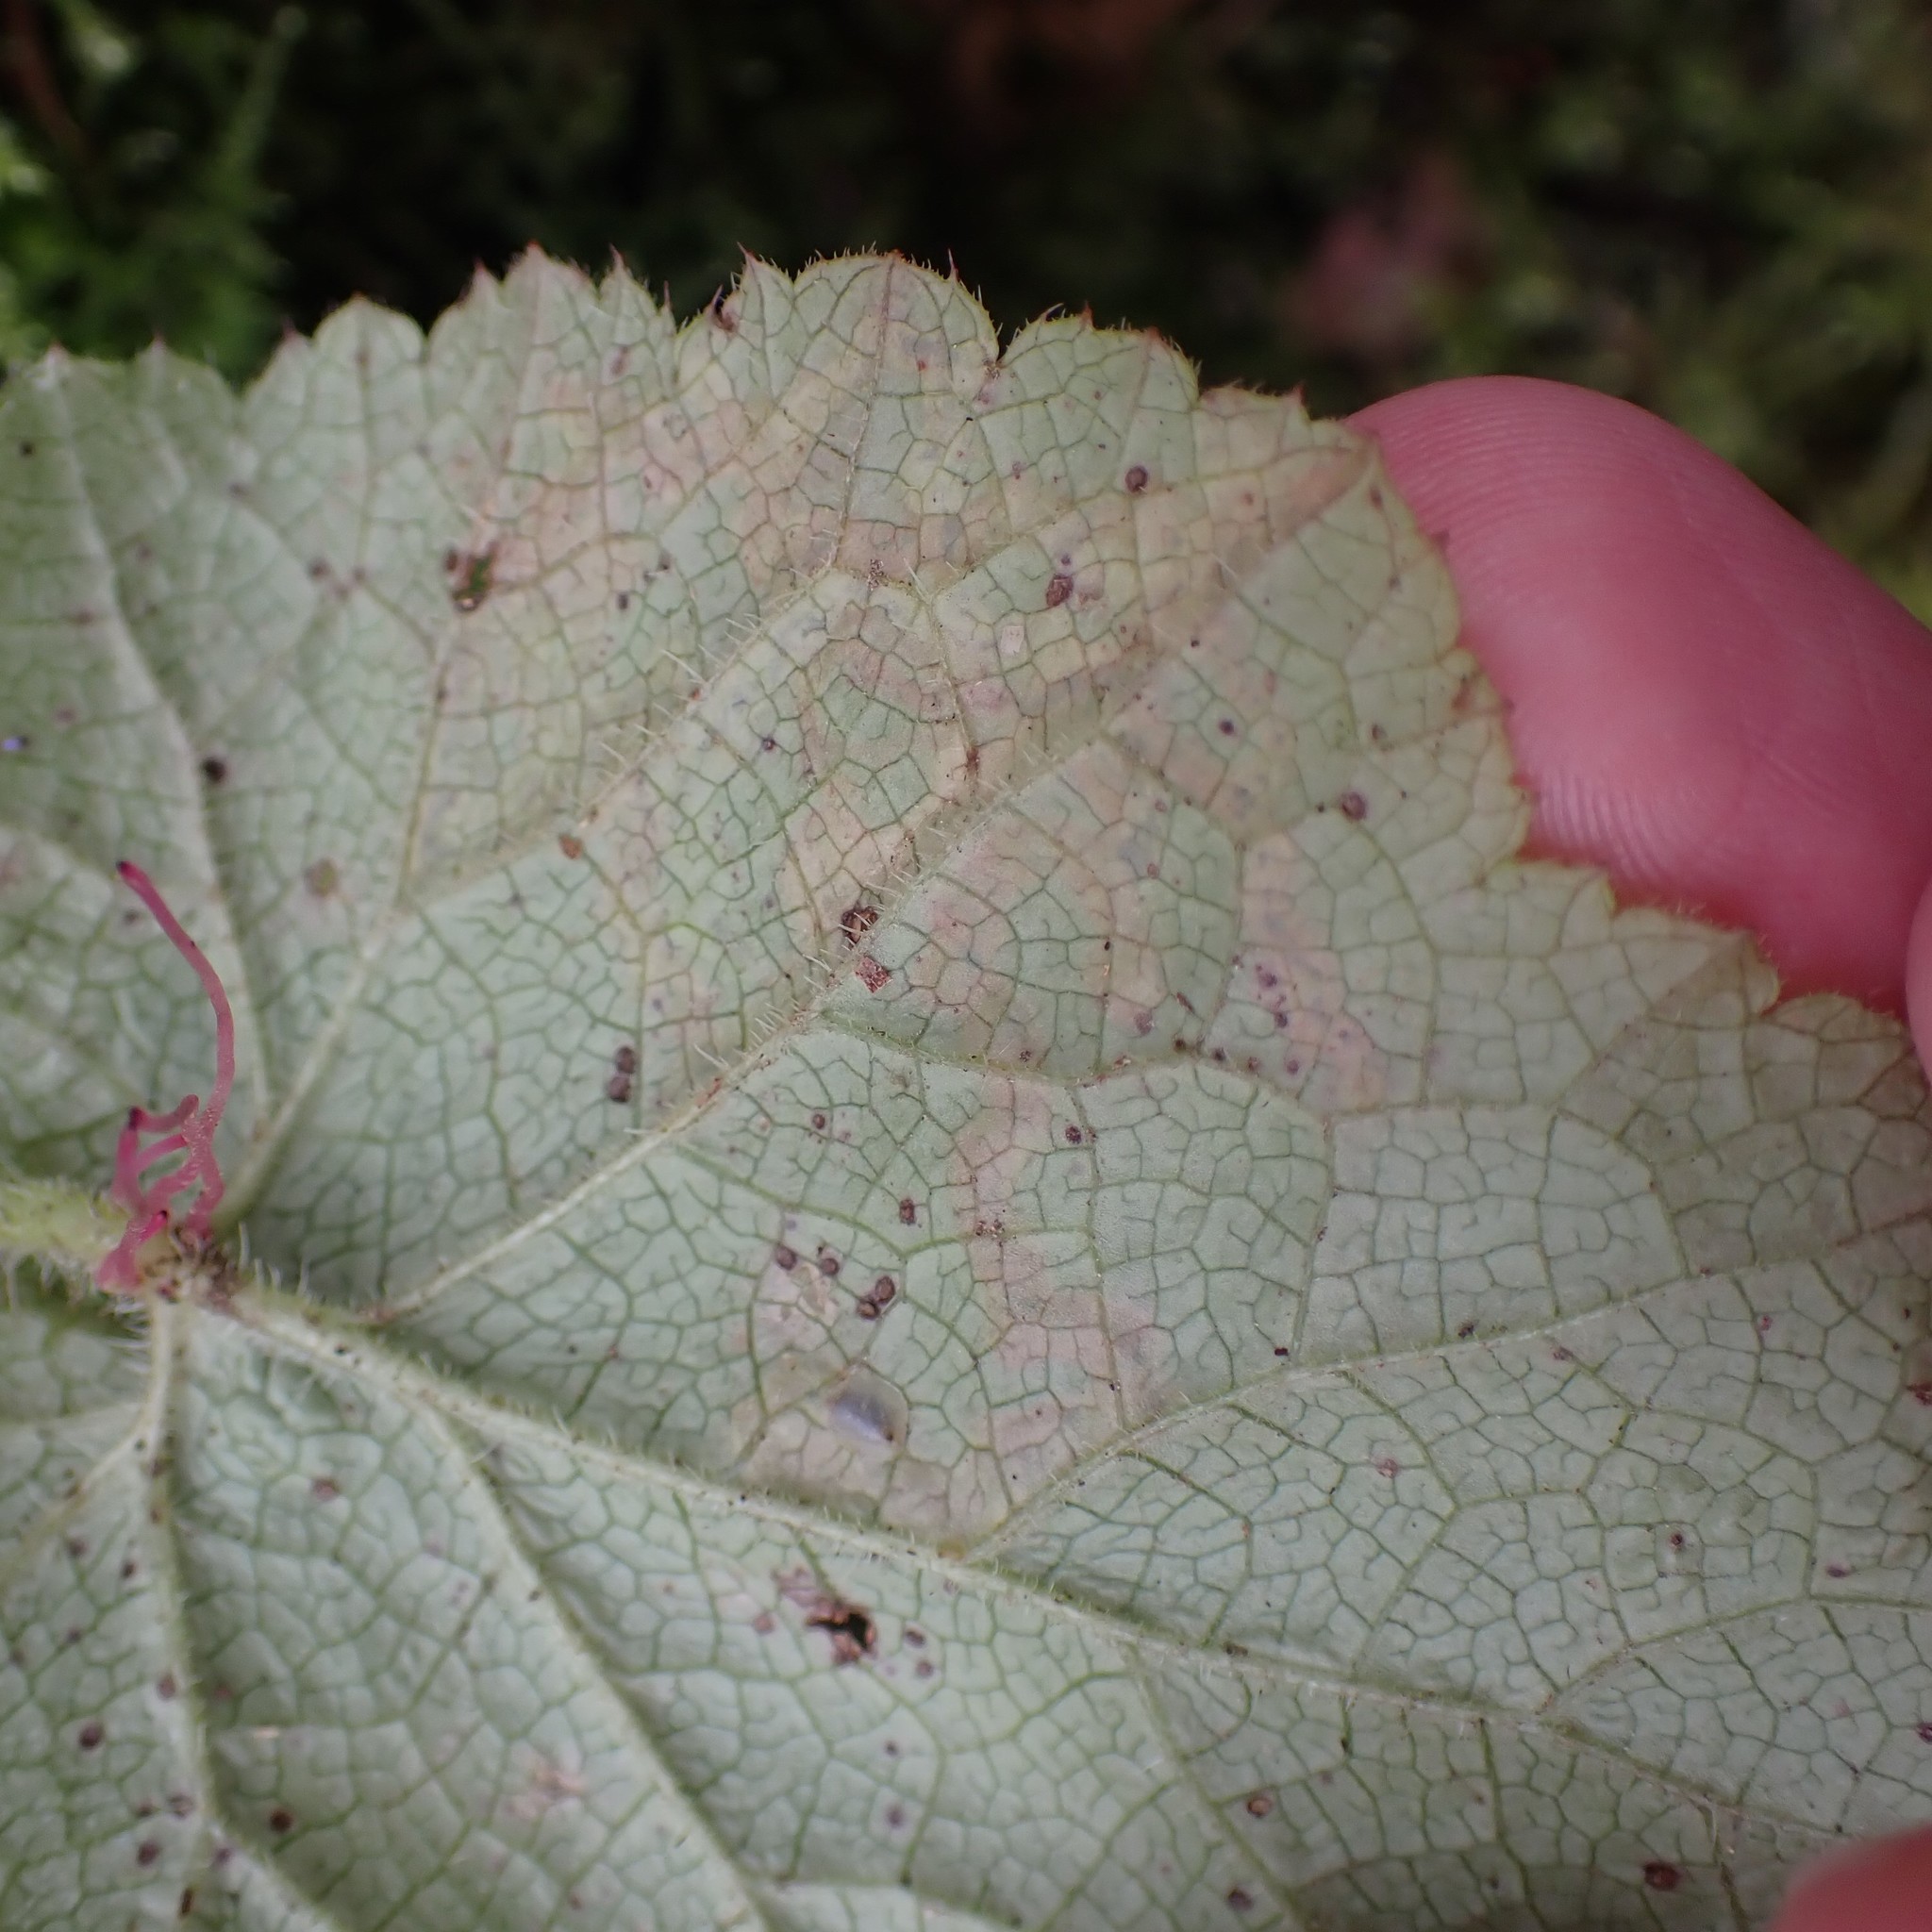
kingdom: Animalia
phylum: Arthropoda
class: Insecta
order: Diptera
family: Agromyzidae
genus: Phytomyza
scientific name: Phytomyza tiarellae
